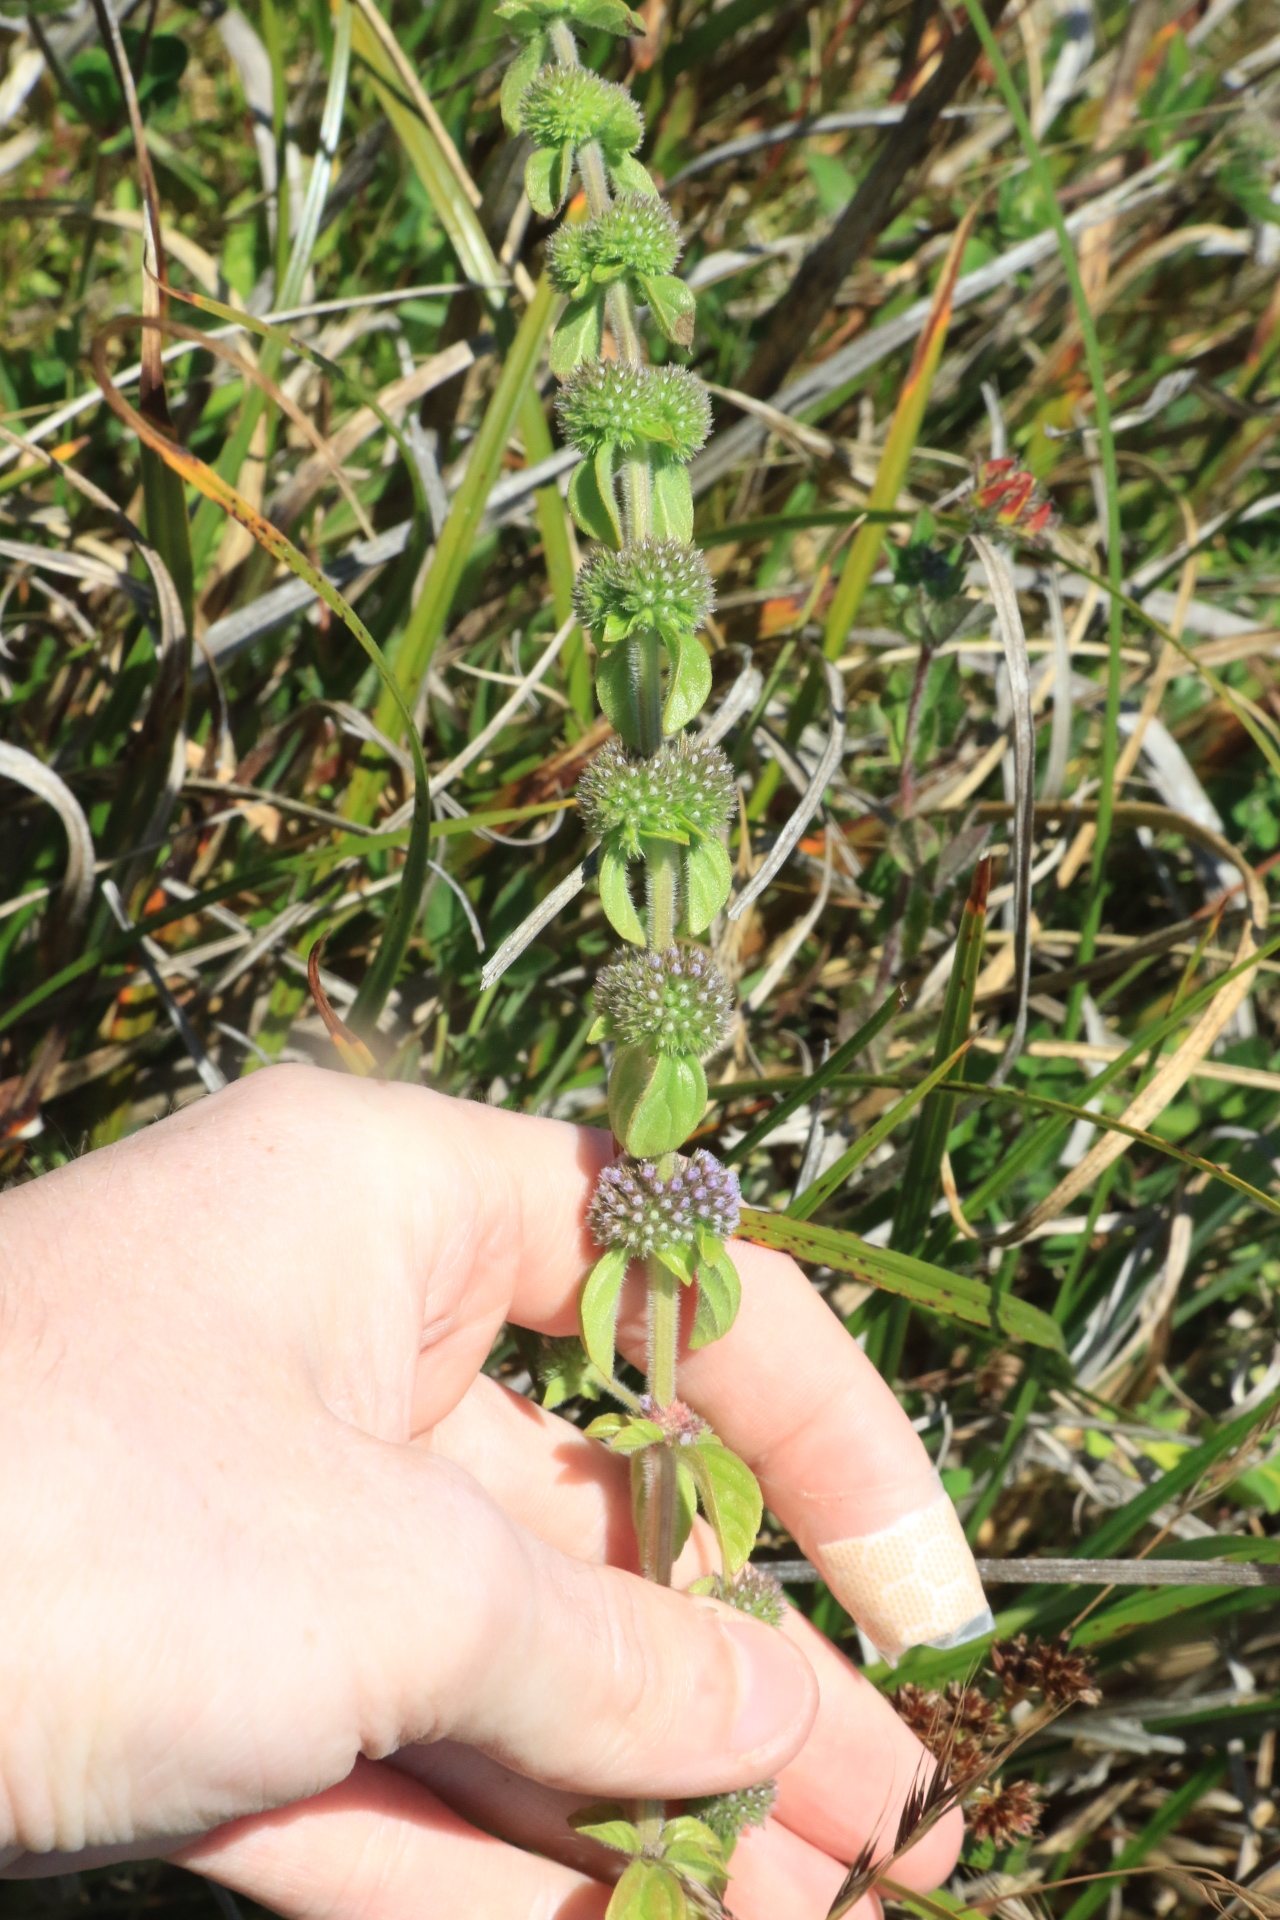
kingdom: Plantae
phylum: Tracheophyta
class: Magnoliopsida
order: Lamiales
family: Lamiaceae
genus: Mentha
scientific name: Mentha pulegium
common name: Pennyroyal
